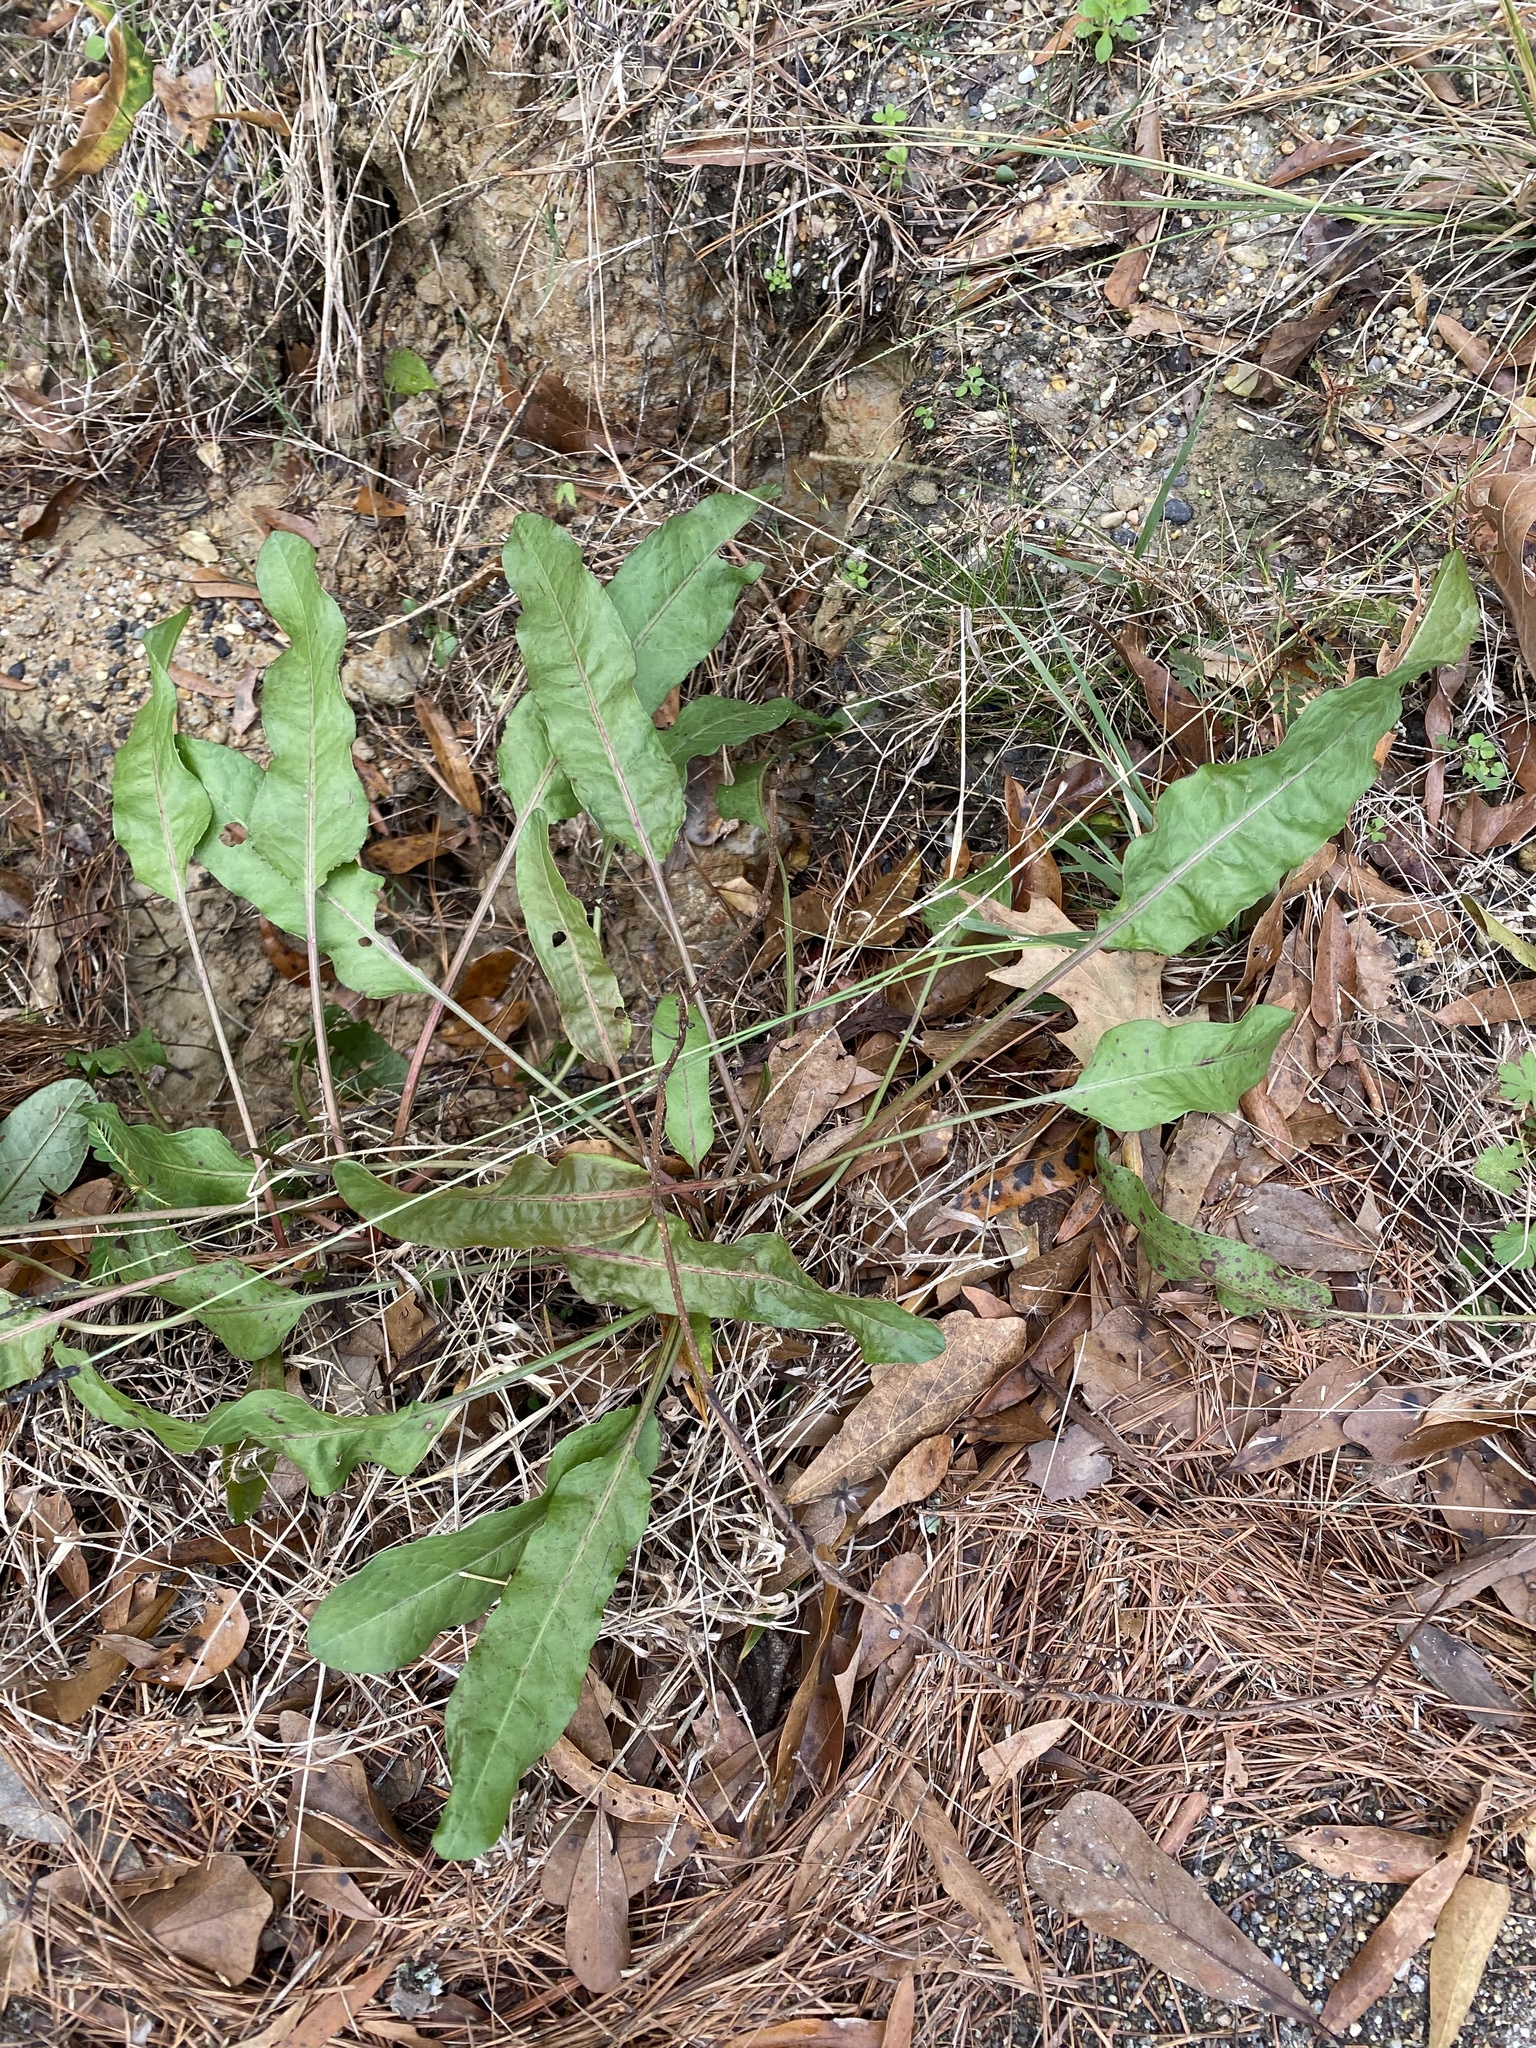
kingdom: Plantae
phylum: Tracheophyta
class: Magnoliopsida
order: Caryophyllales
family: Polygonaceae
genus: Rumex
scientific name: Rumex crispus
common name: Curled dock
